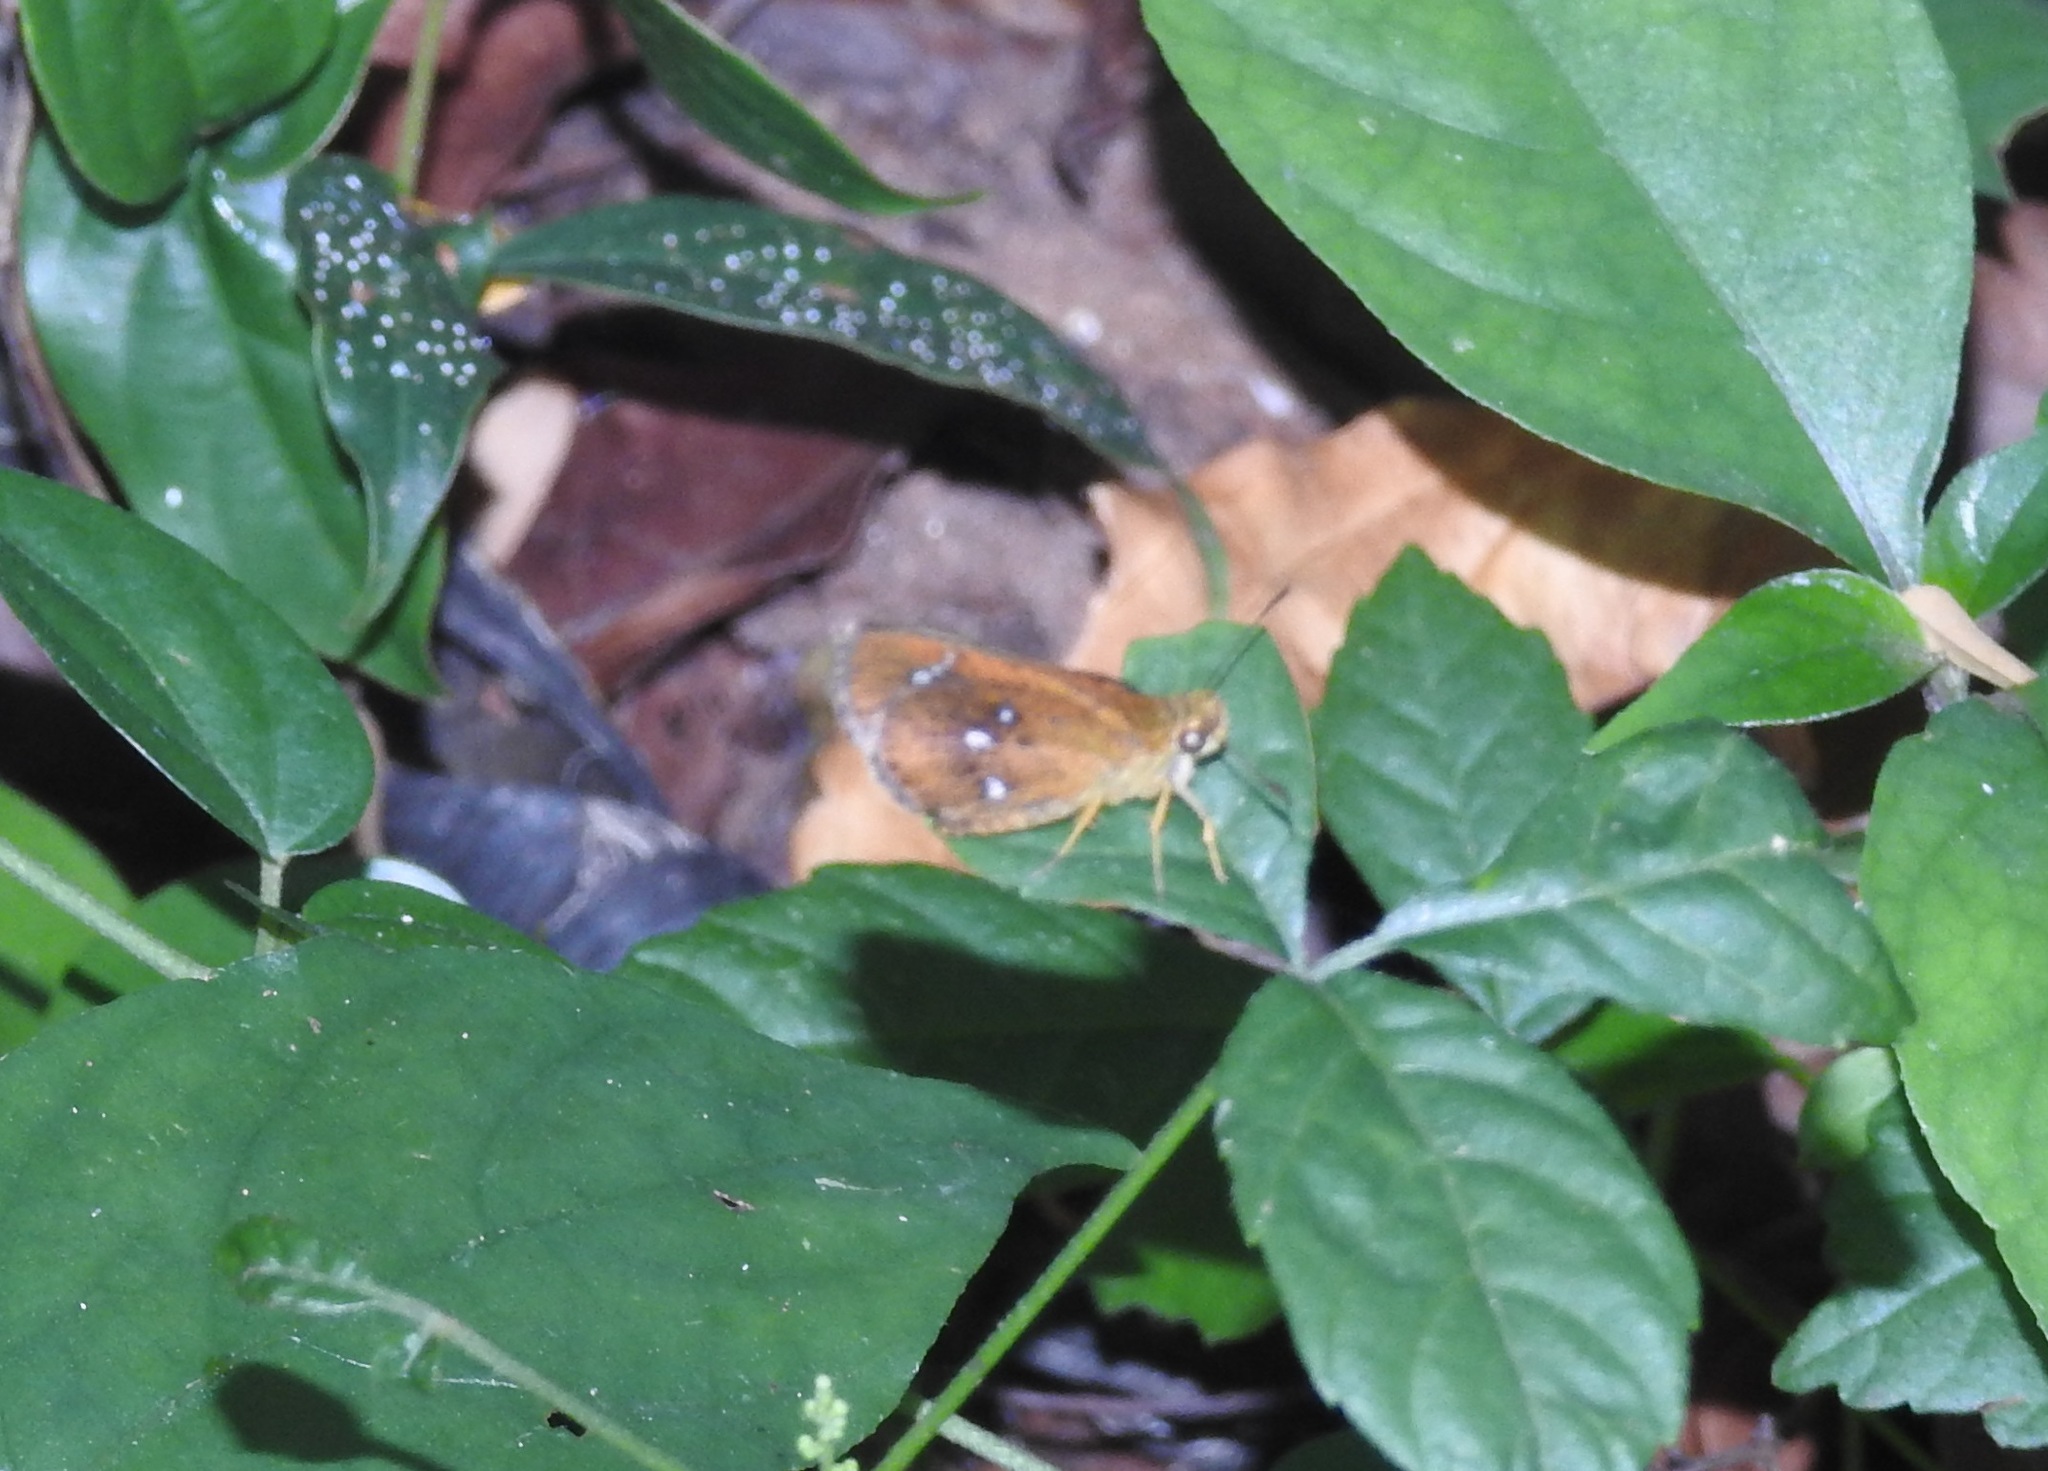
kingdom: Animalia
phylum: Arthropoda
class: Insecta
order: Lepidoptera
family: Hesperiidae
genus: Iambrix
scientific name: Iambrix salsala
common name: Chestnut bob
